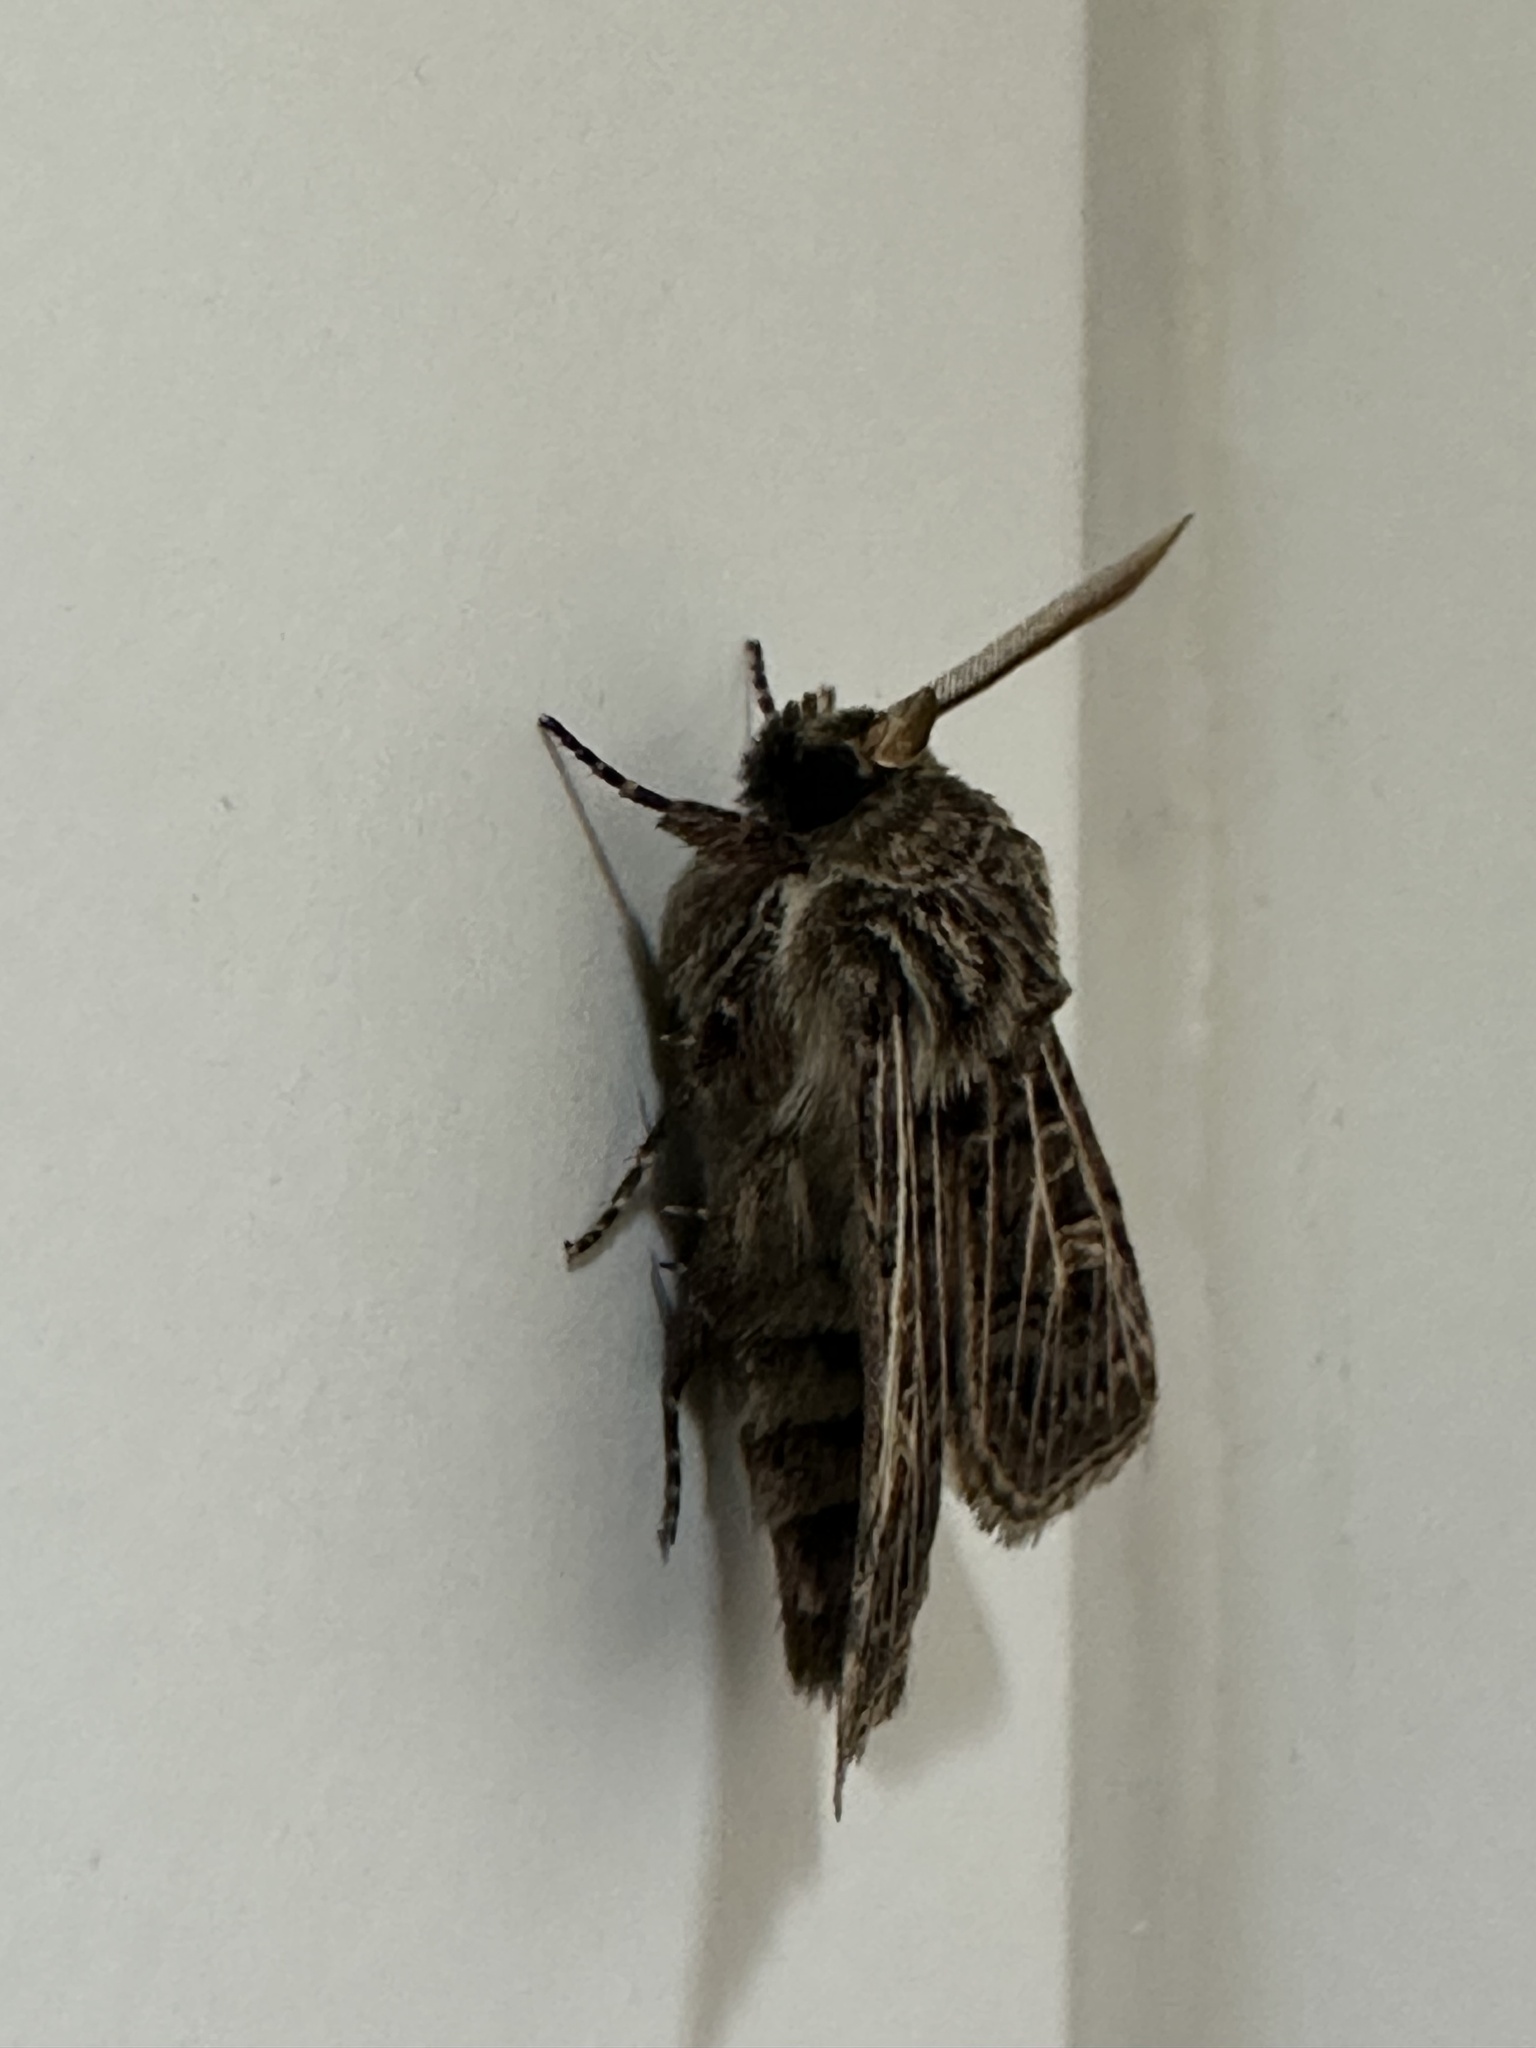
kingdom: Animalia
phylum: Arthropoda
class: Insecta
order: Lepidoptera
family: Noctuidae
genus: Tholera
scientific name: Tholera decimalis
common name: Feathered gothic
